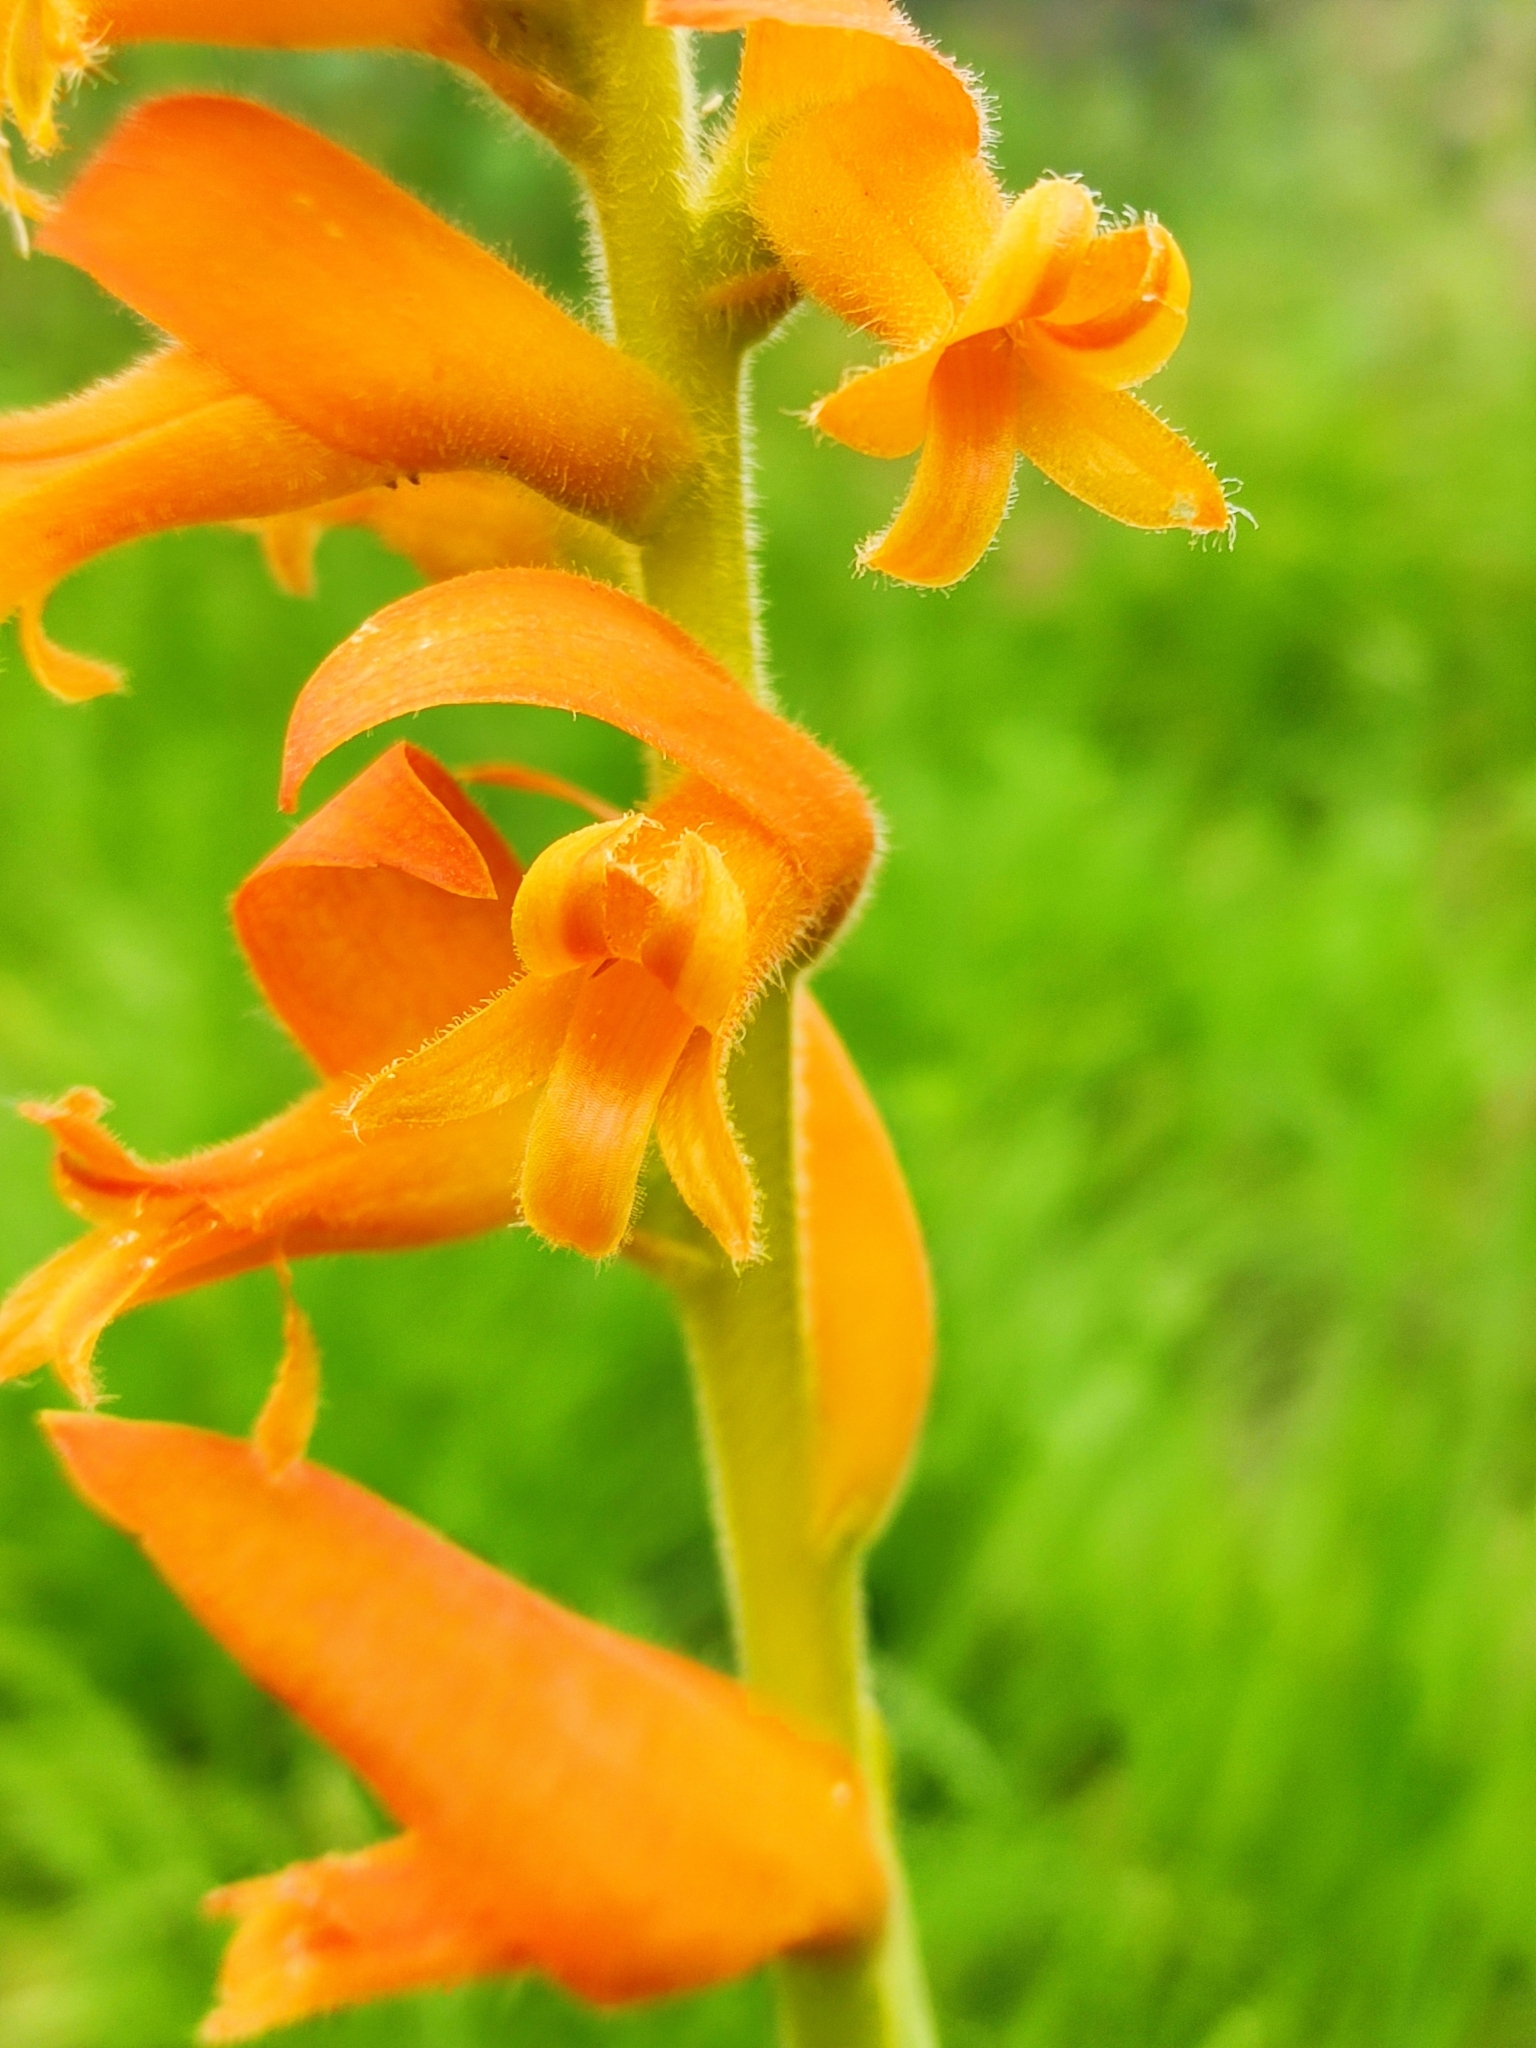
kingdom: Plantae
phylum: Tracheophyta
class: Liliopsida
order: Asparagales
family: Orchidaceae
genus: Dichromanthus
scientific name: Dichromanthus aurantiacus
